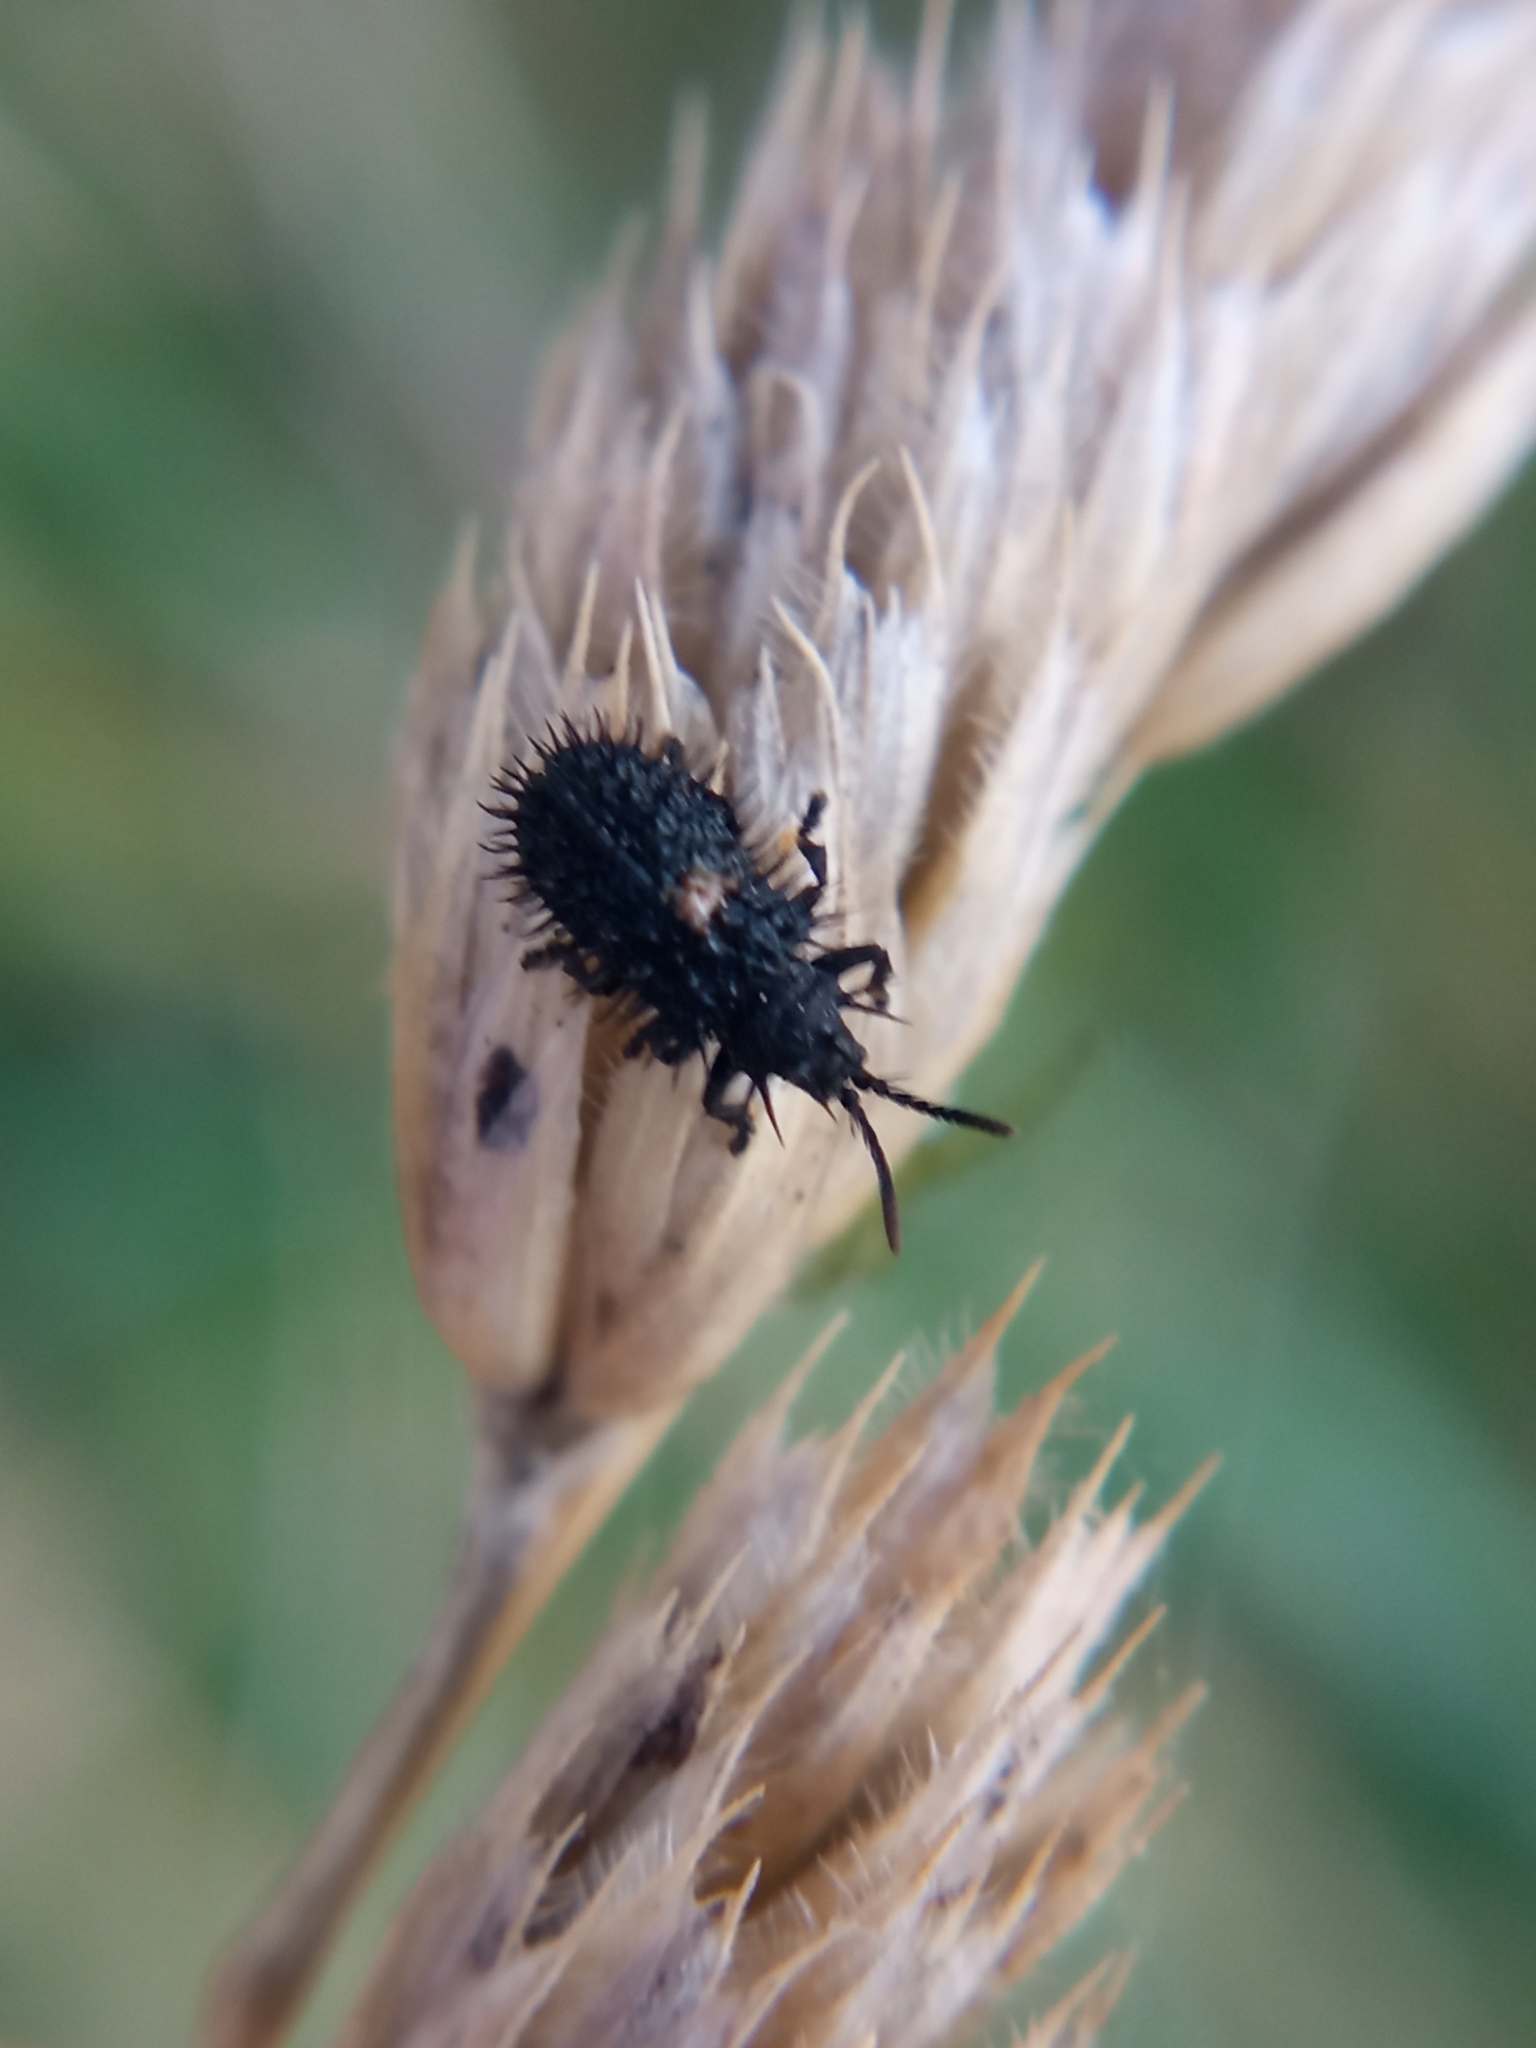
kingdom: Animalia
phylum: Arthropoda
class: Insecta
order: Coleoptera
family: Chrysomelidae
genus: Hispa
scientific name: Hispa atra
